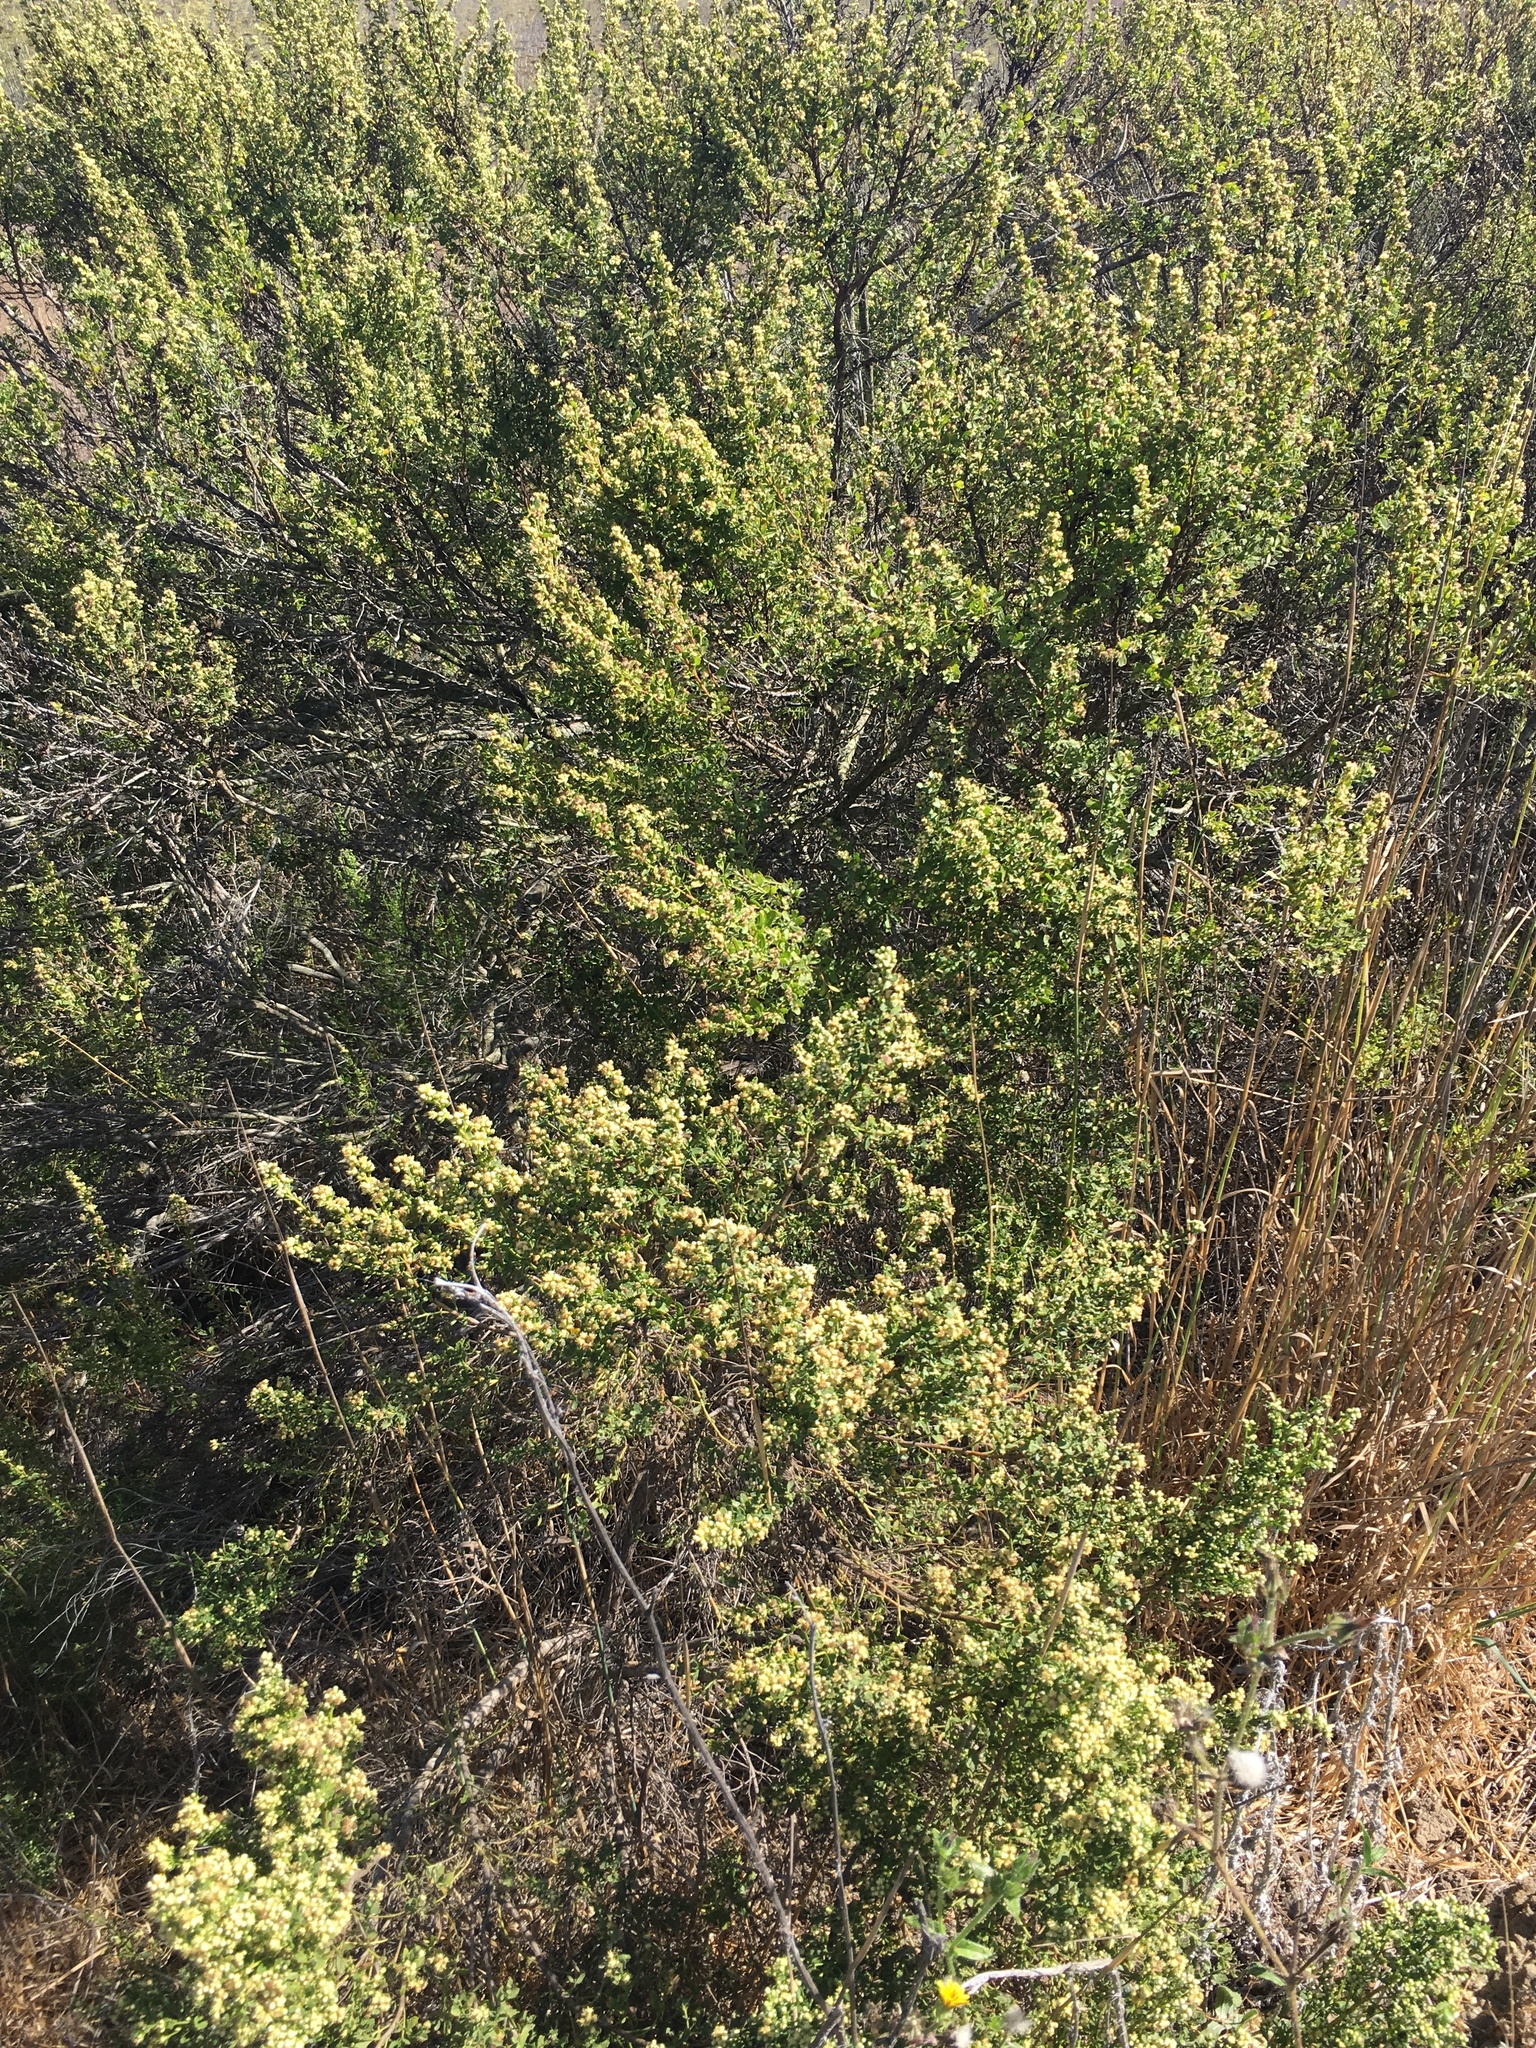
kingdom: Plantae
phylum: Tracheophyta
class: Magnoliopsida
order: Asterales
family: Asteraceae
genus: Baccharis
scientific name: Baccharis pilularis
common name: Coyotebrush
